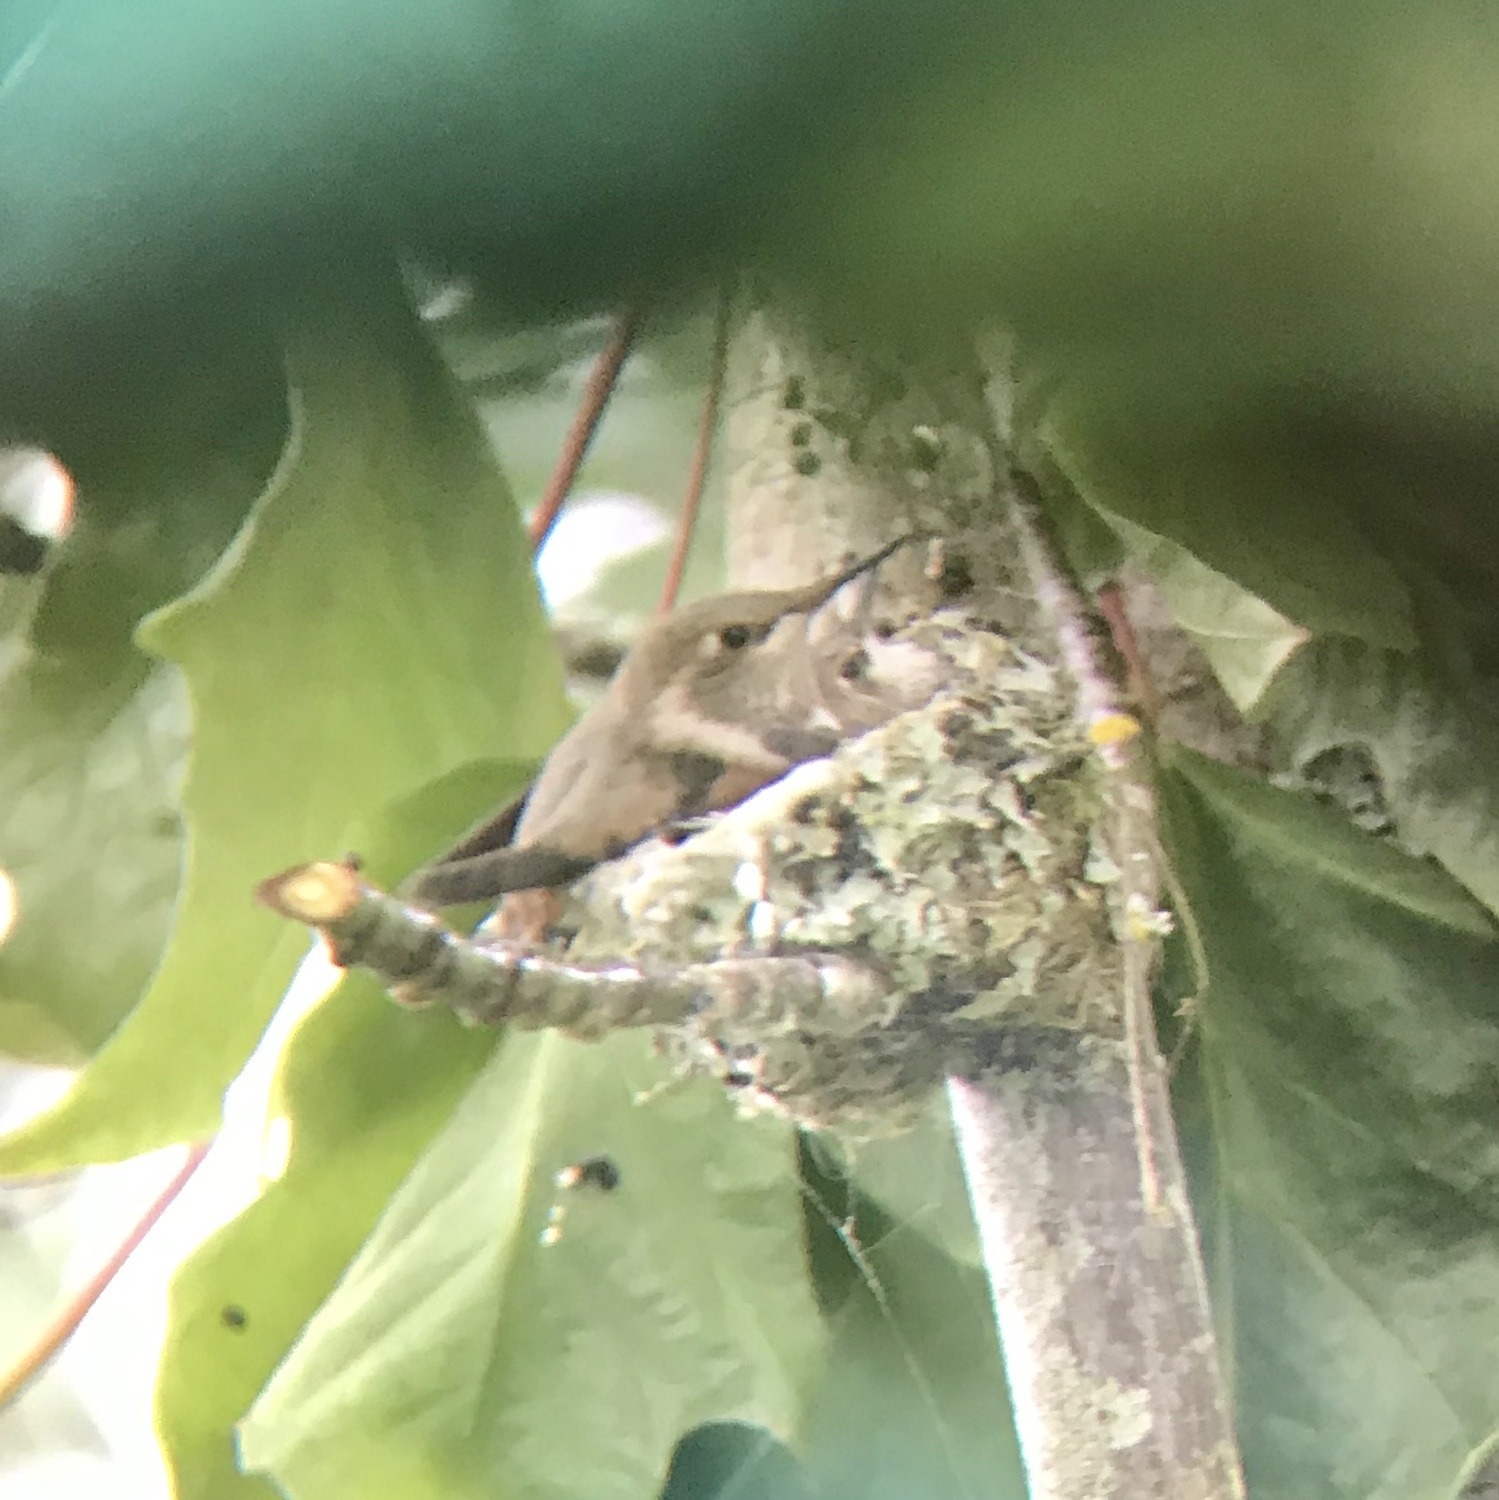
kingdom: Animalia
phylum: Chordata
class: Aves
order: Apodiformes
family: Trochilidae
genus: Selasphorus
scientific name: Selasphorus rufus
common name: Rufous hummingbird
